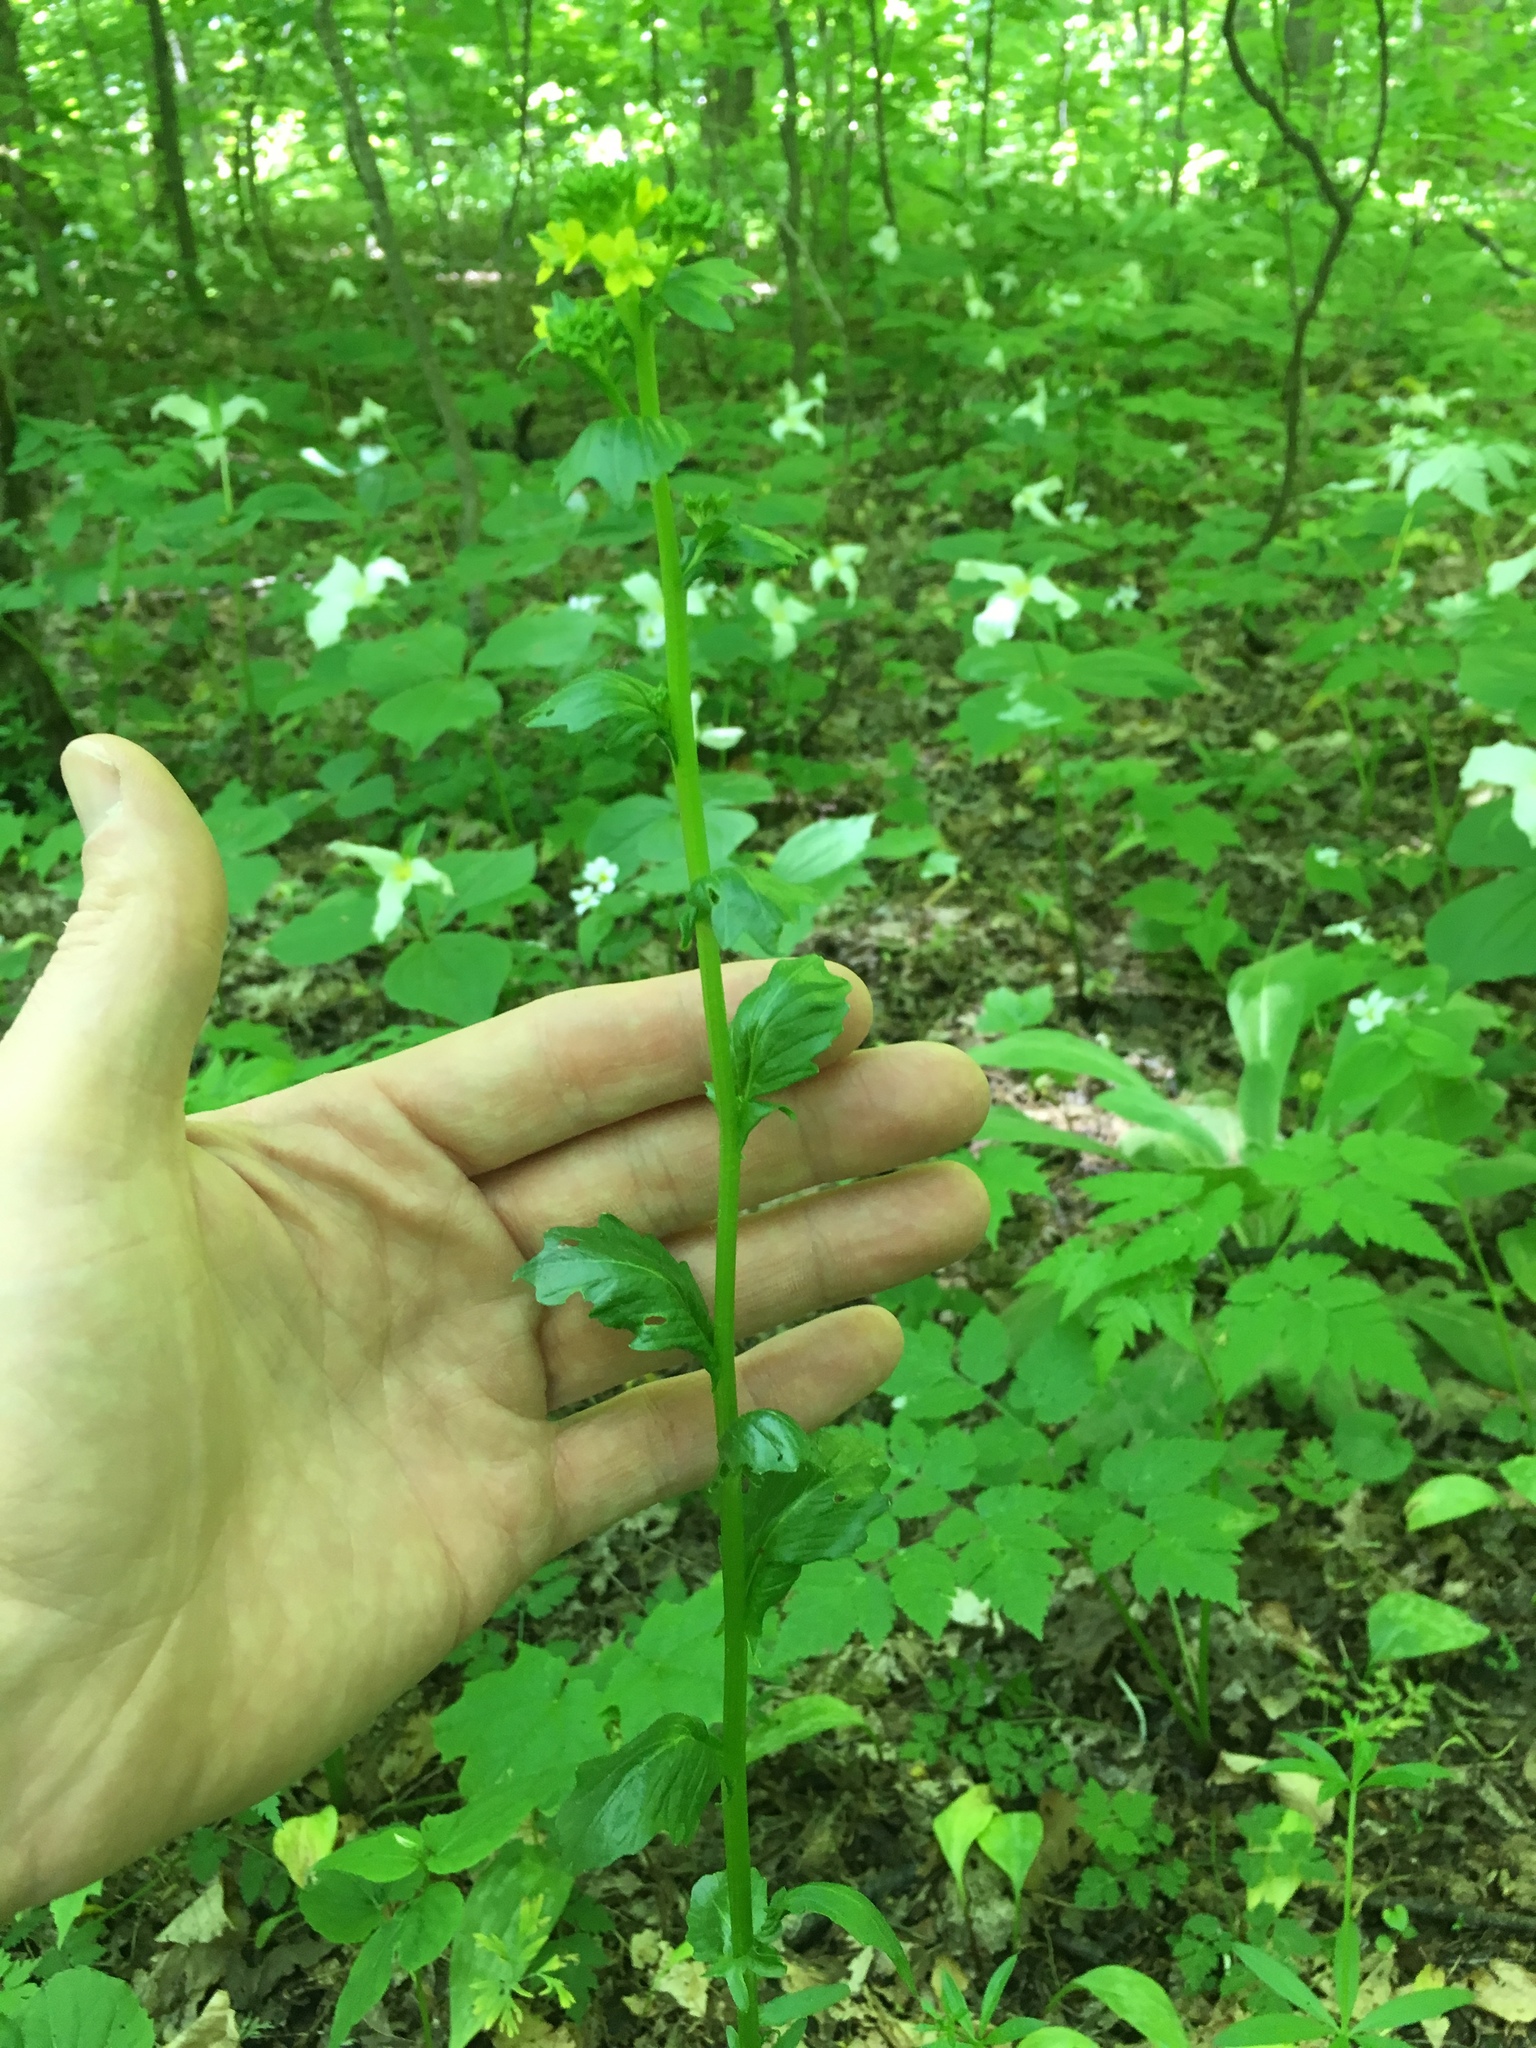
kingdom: Plantae
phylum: Tracheophyta
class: Magnoliopsida
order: Brassicales
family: Brassicaceae
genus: Barbarea
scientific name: Barbarea vulgaris
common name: Cressy-greens
